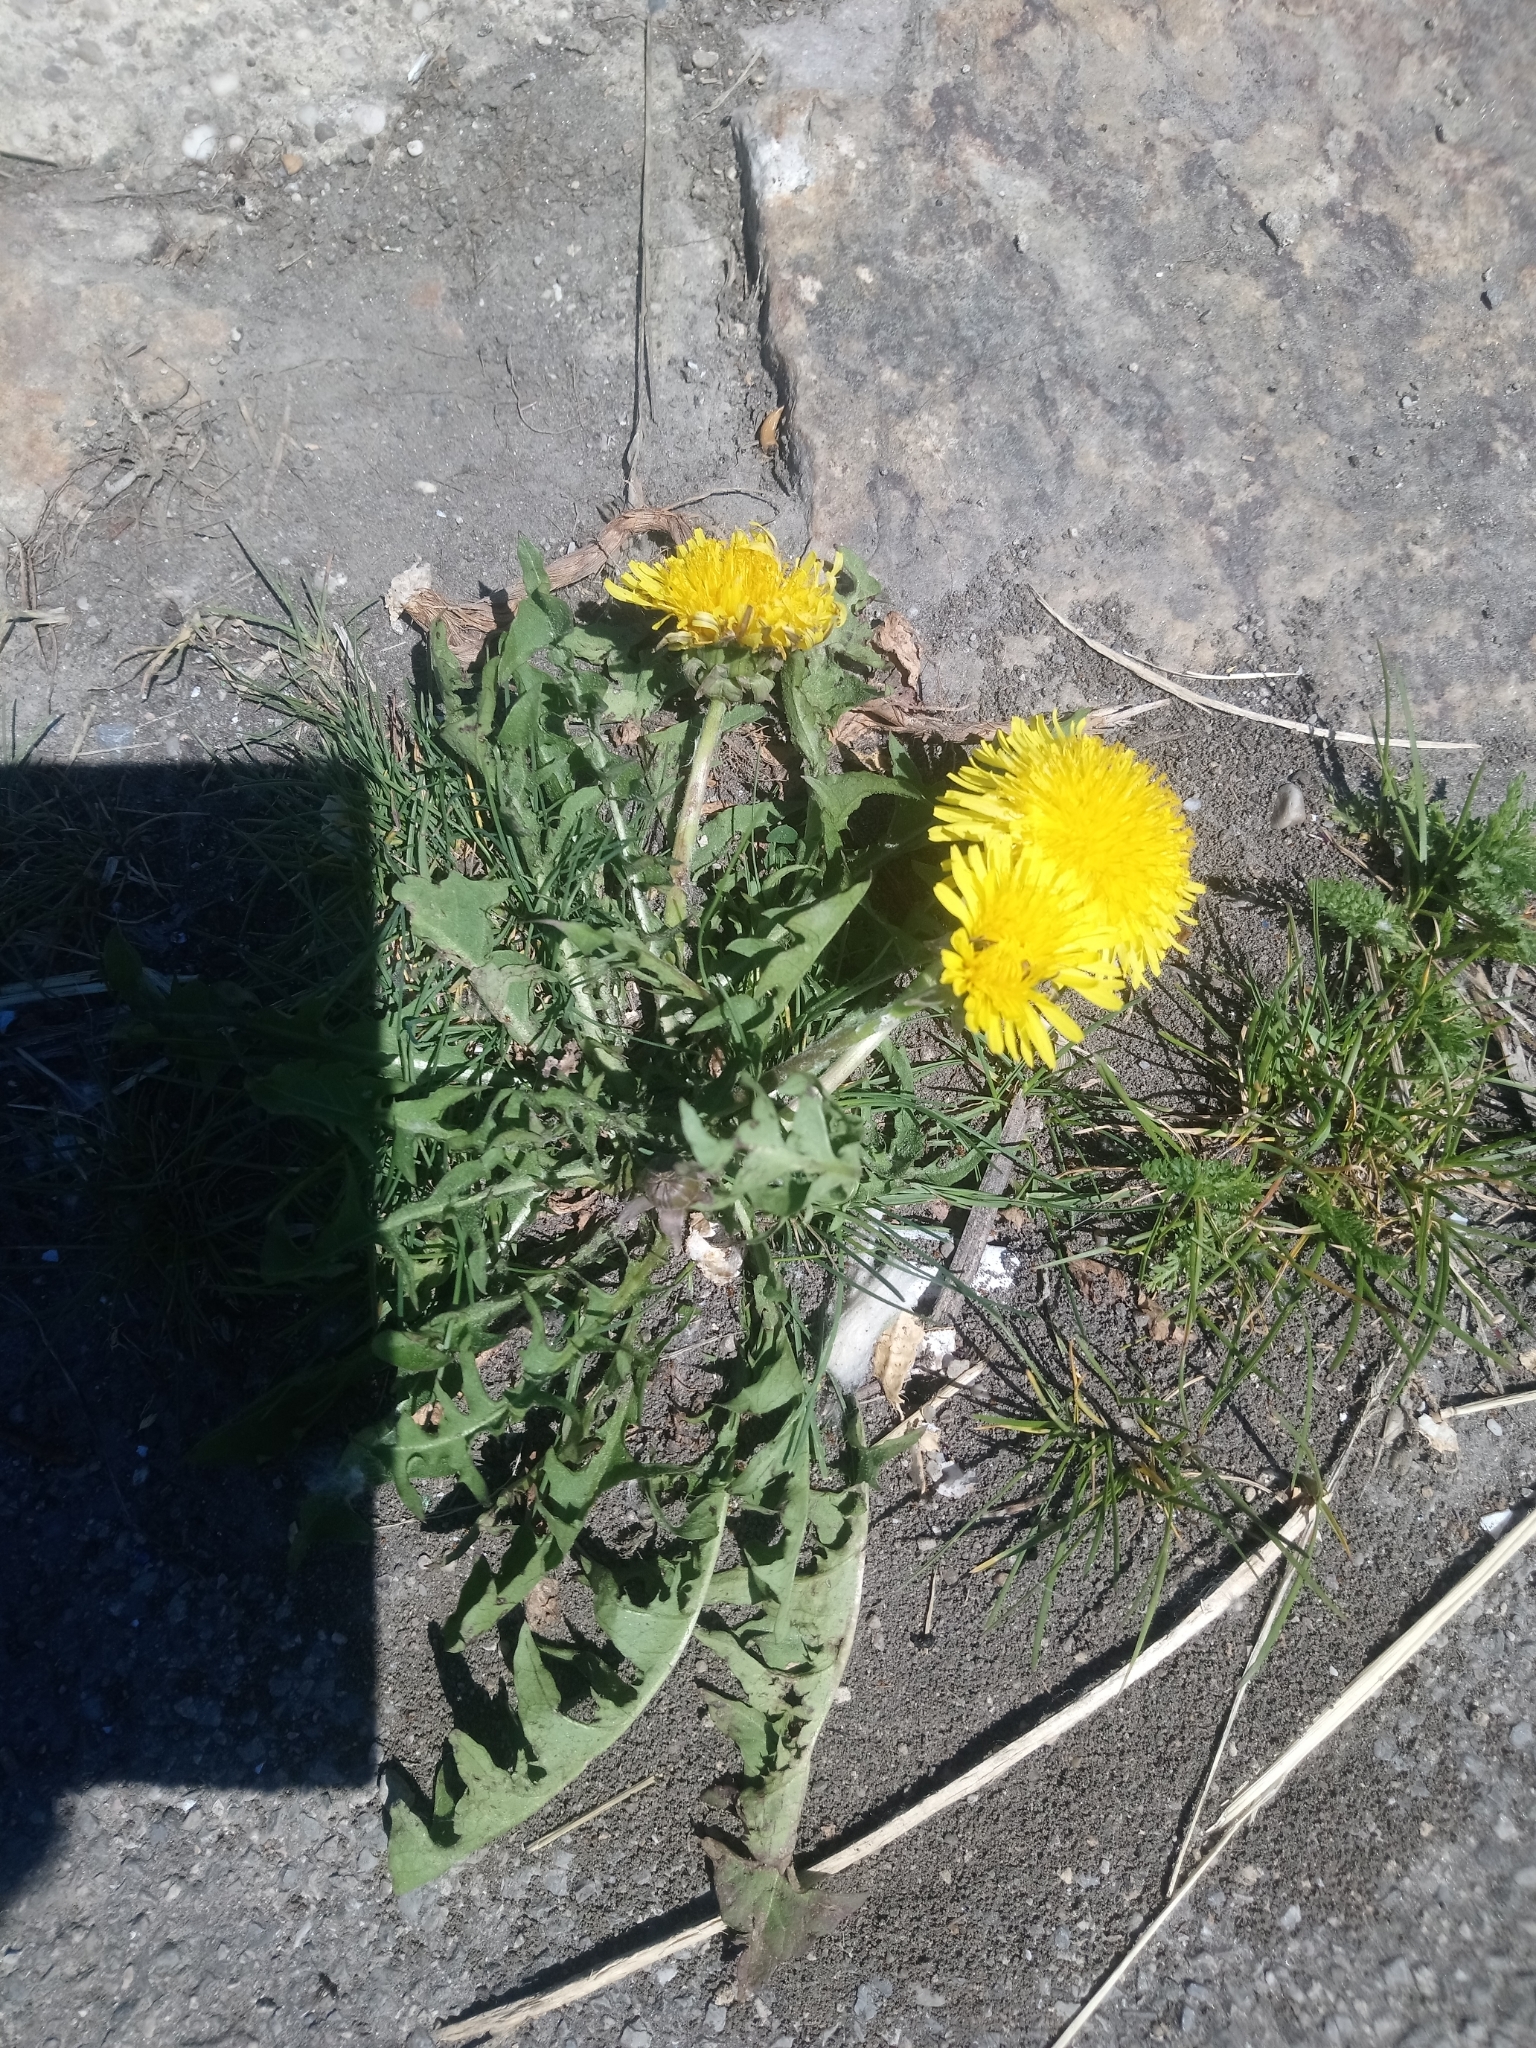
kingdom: Plantae
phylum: Tracheophyta
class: Magnoliopsida
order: Asterales
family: Asteraceae
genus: Taraxacum
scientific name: Taraxacum officinale
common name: Common dandelion
